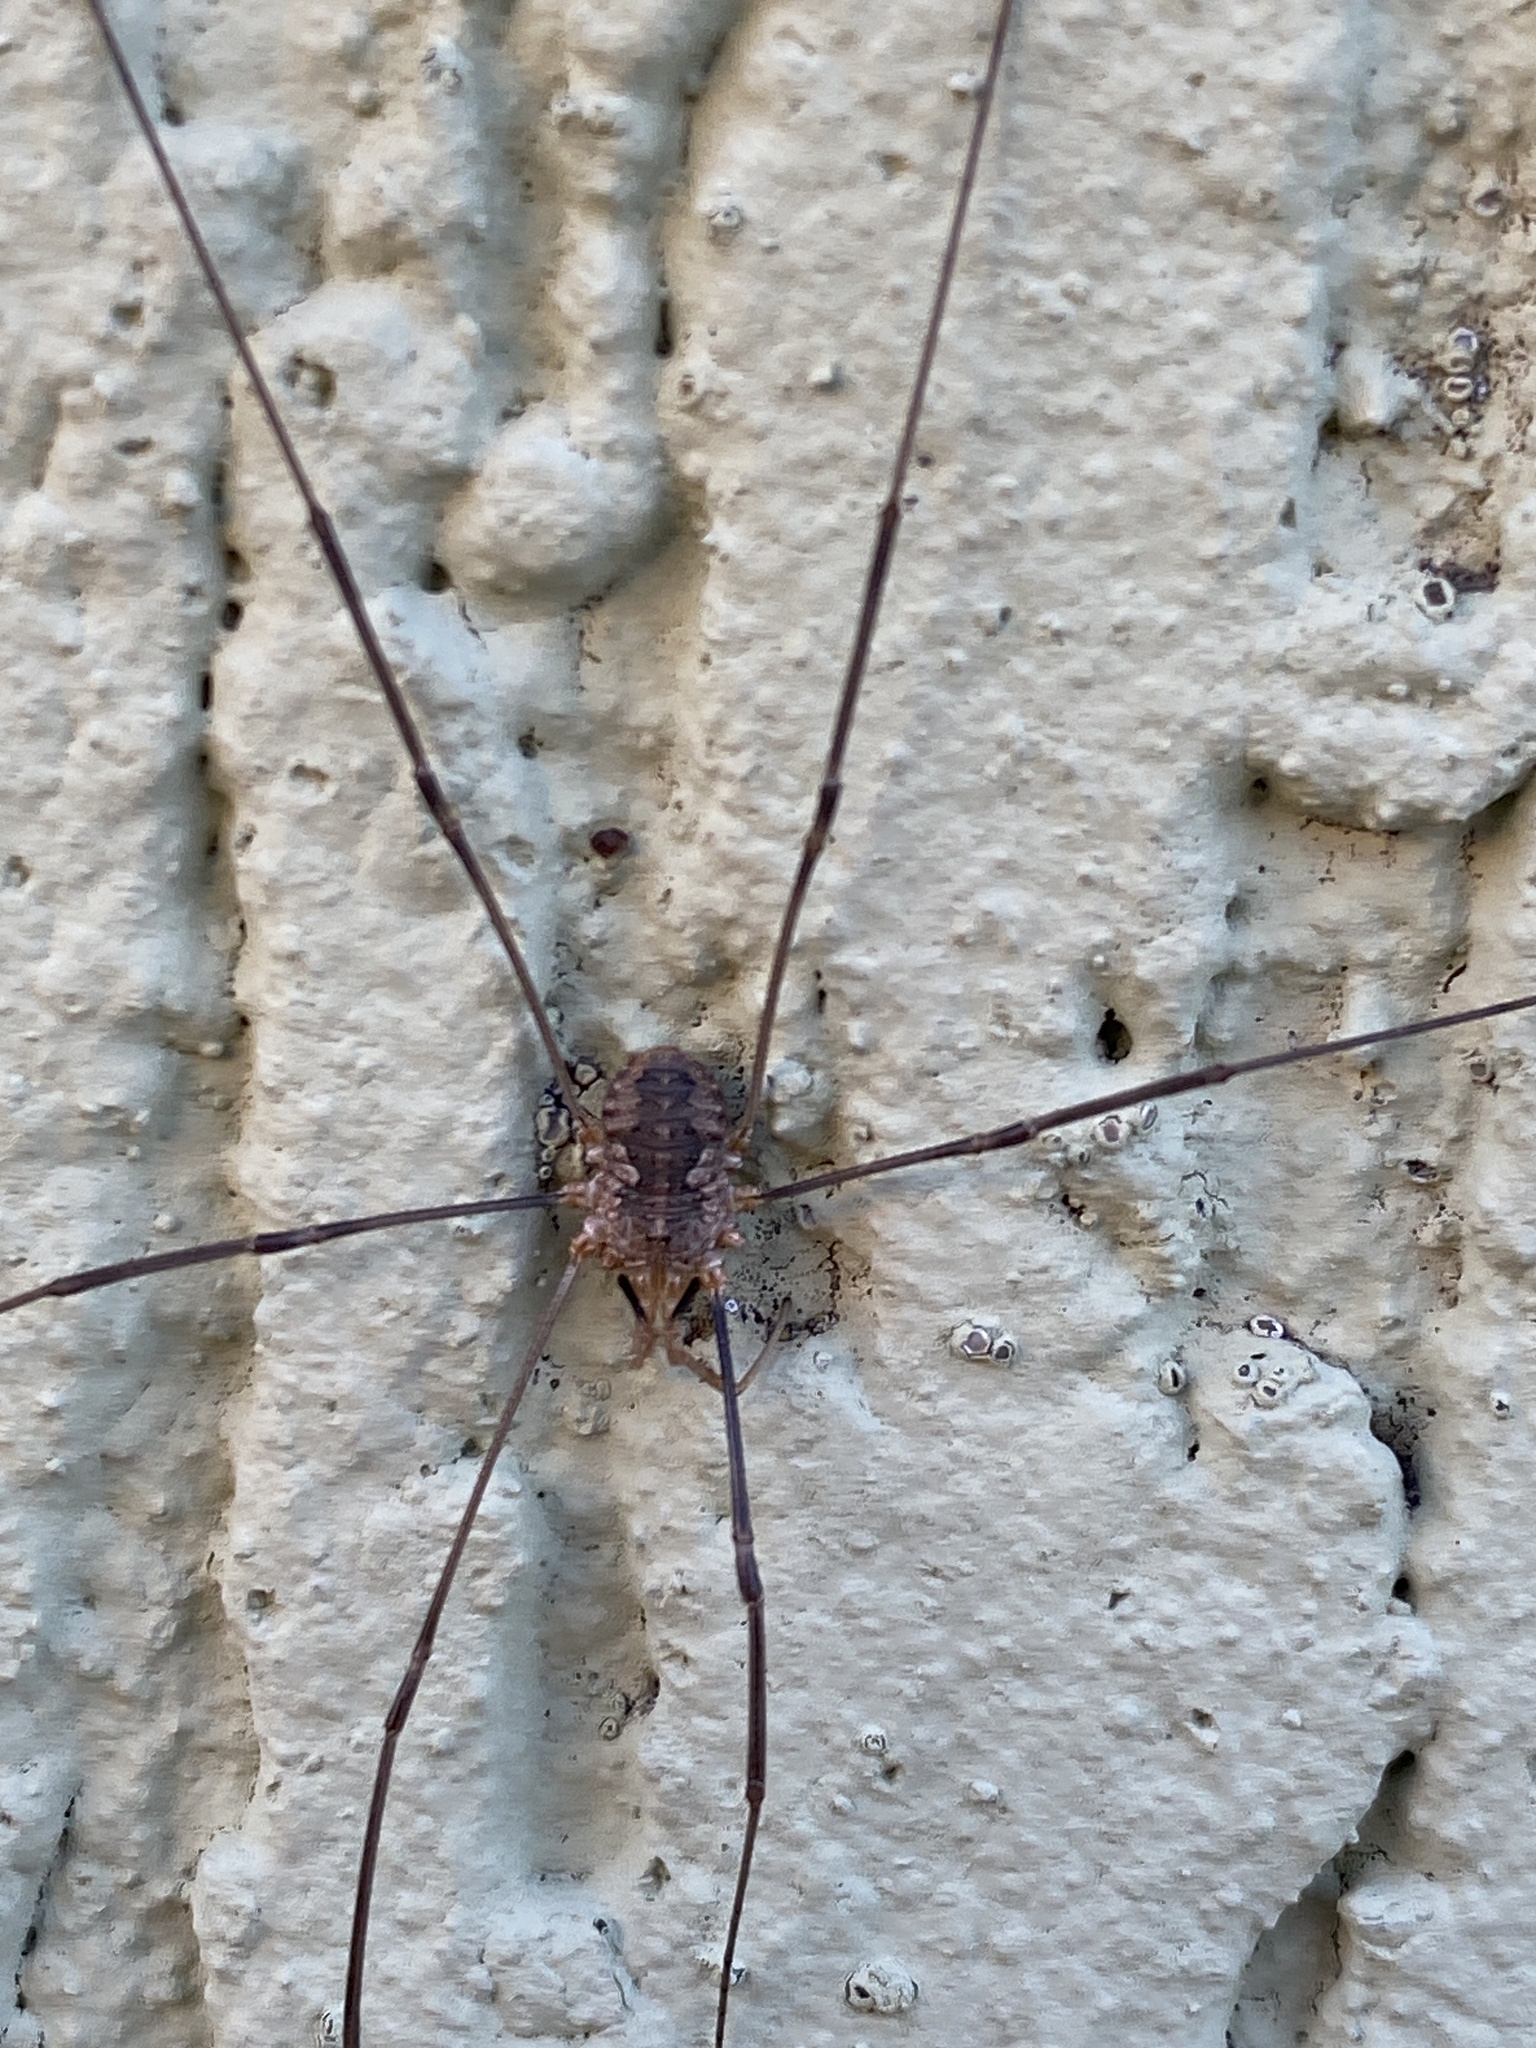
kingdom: Animalia
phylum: Arthropoda
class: Arachnida
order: Opiliones
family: Phalangiidae
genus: Phalangium
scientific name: Phalangium opilio
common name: Daddy longleg
